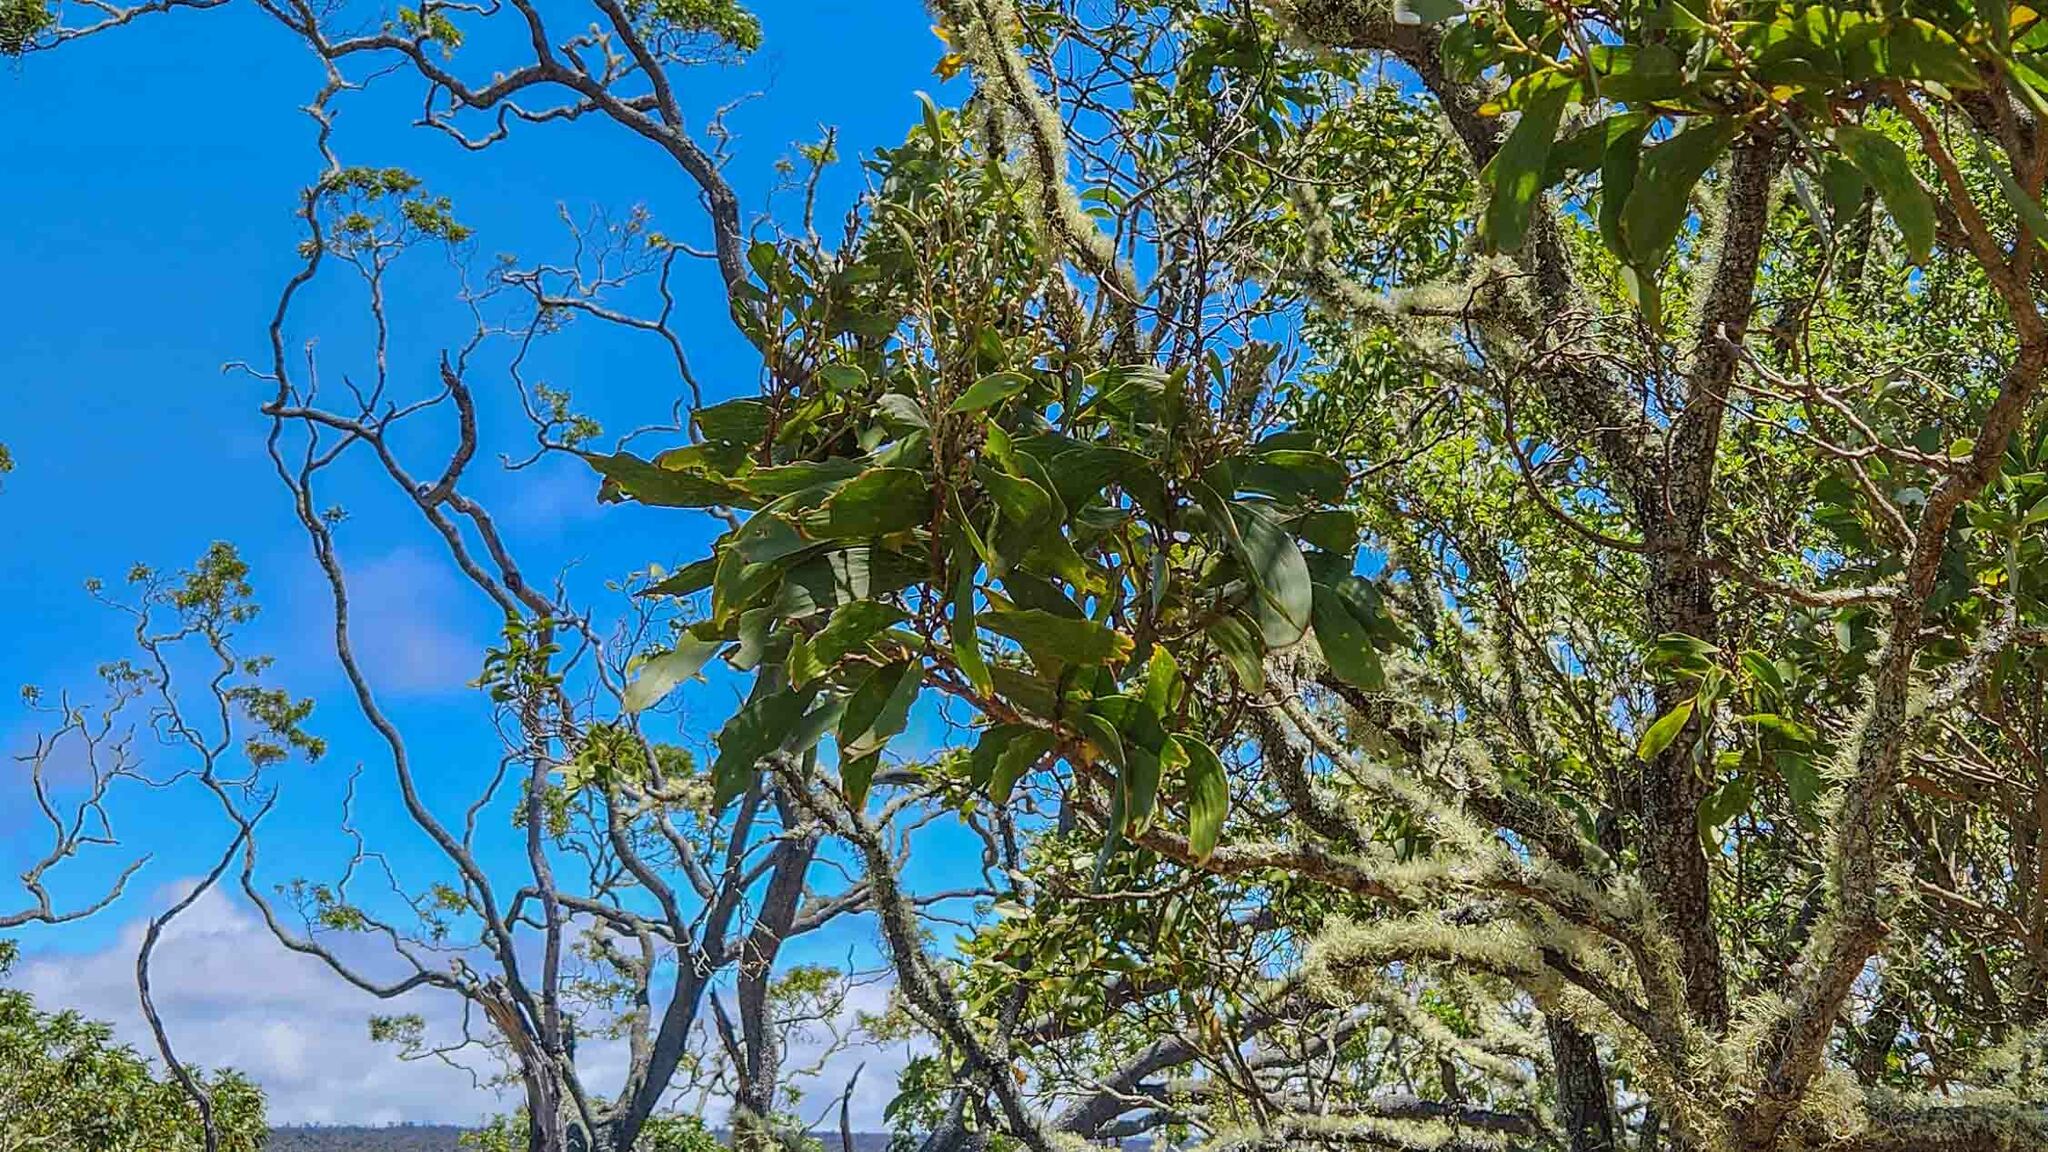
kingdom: Plantae
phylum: Tracheophyta
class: Magnoliopsida
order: Fabales
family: Fabaceae
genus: Acacia
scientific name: Acacia koa
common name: Gray koa
